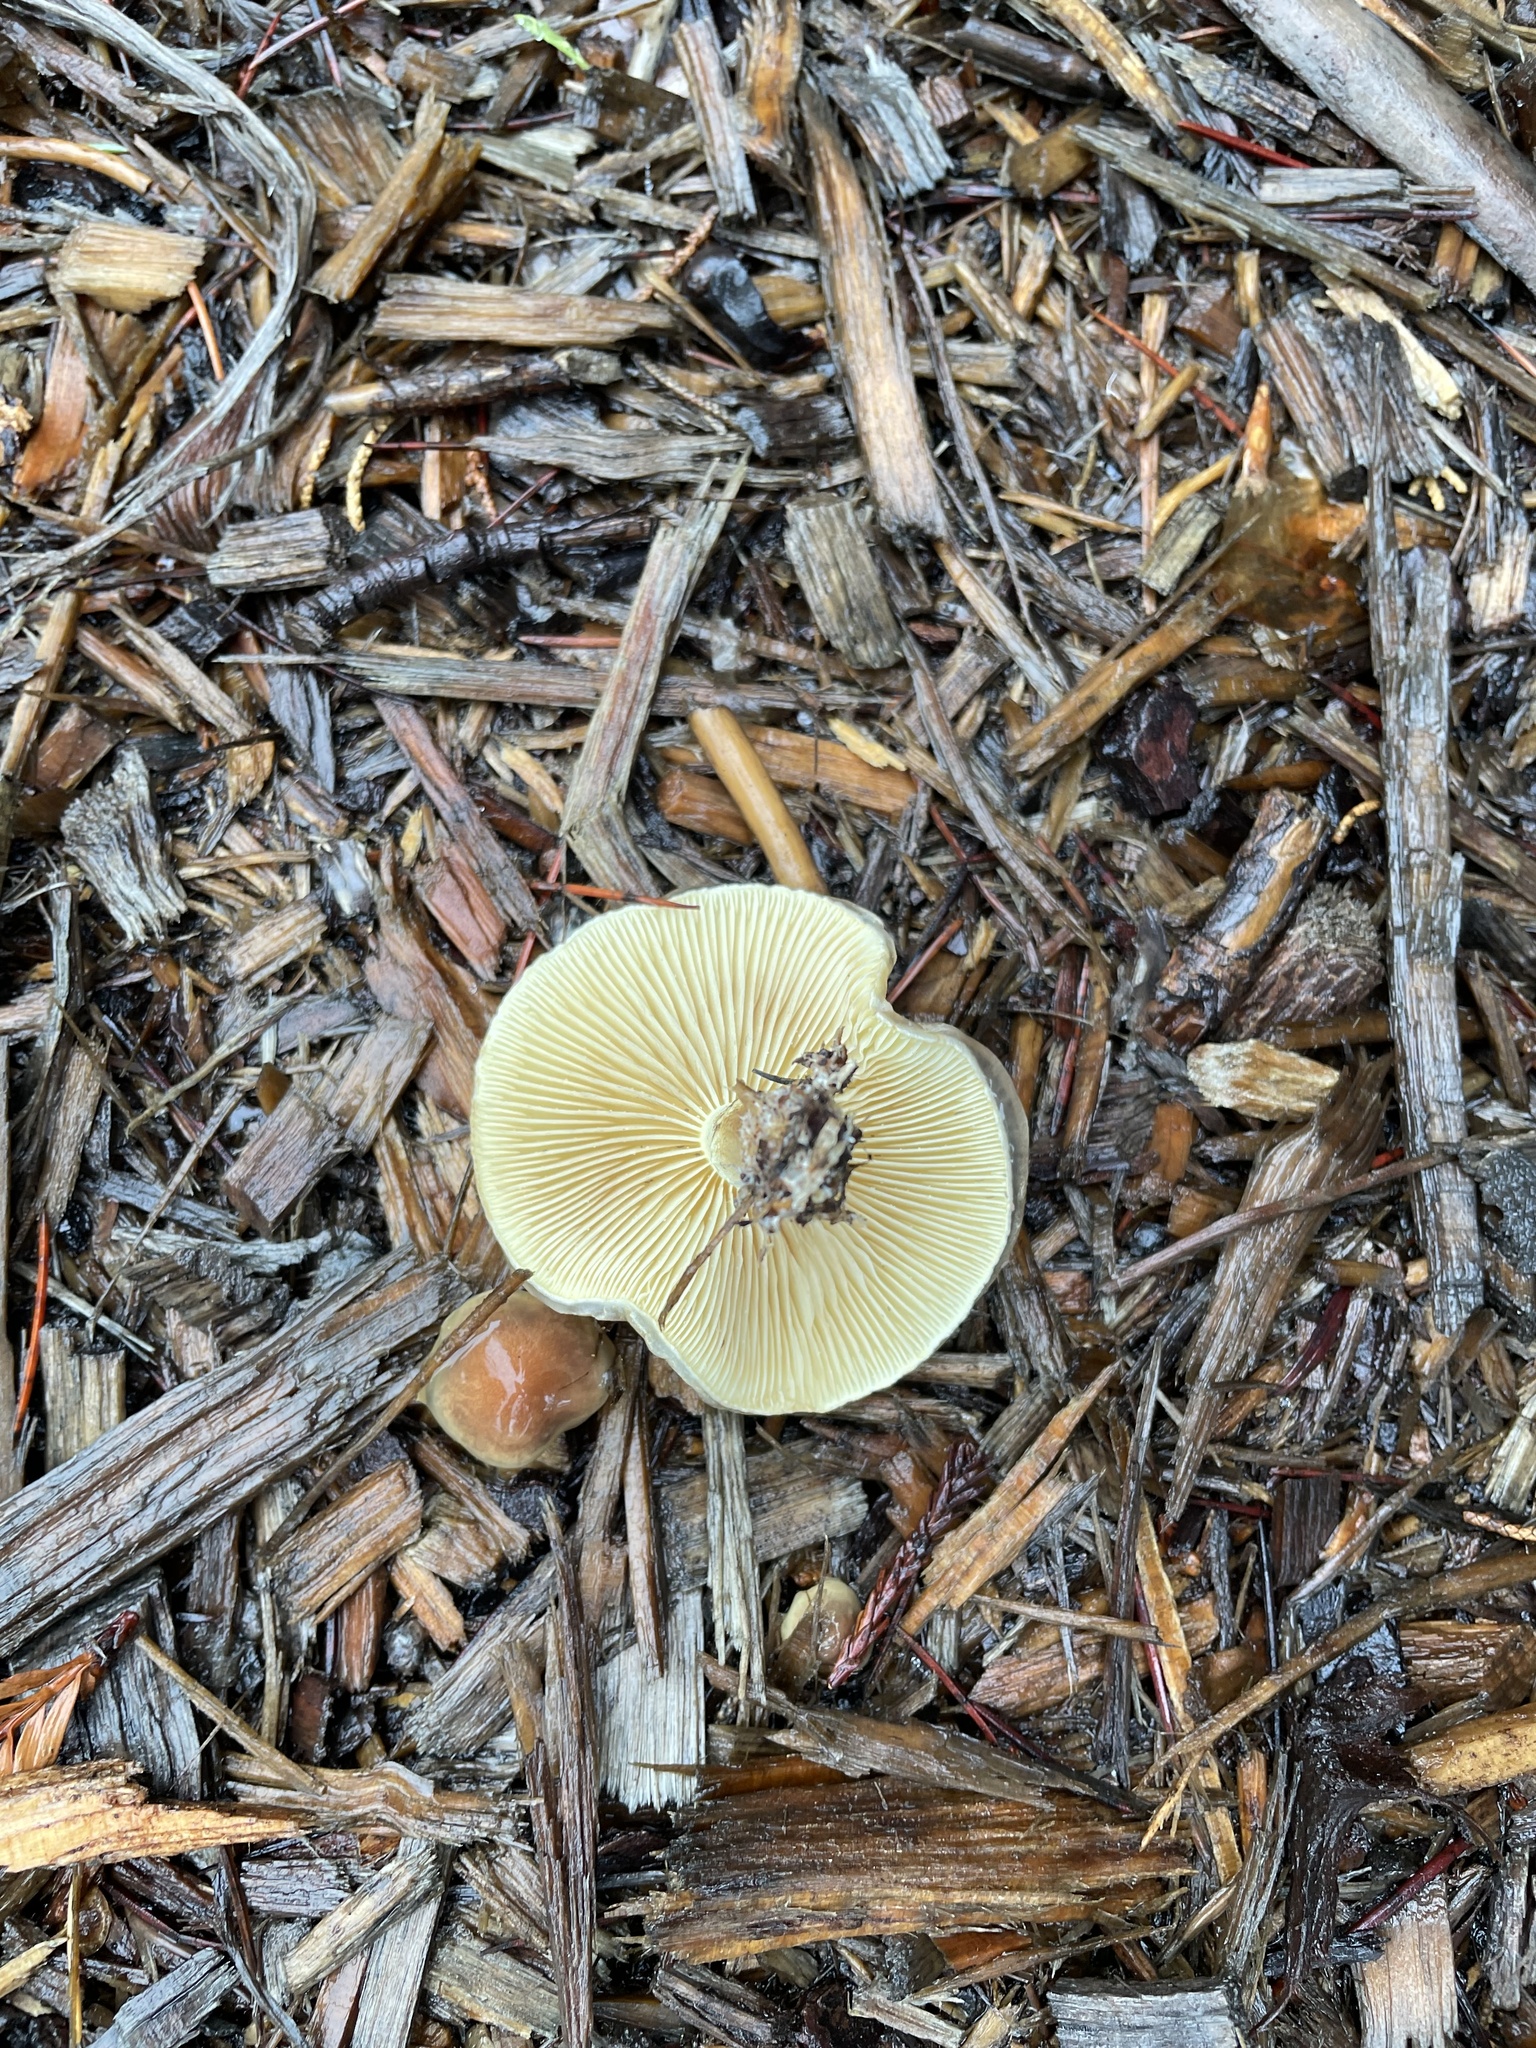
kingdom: Fungi
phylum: Basidiomycota
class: Agaricomycetes
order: Agaricales
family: Strophariaceae
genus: Pholiota
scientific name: Pholiota spumosa
